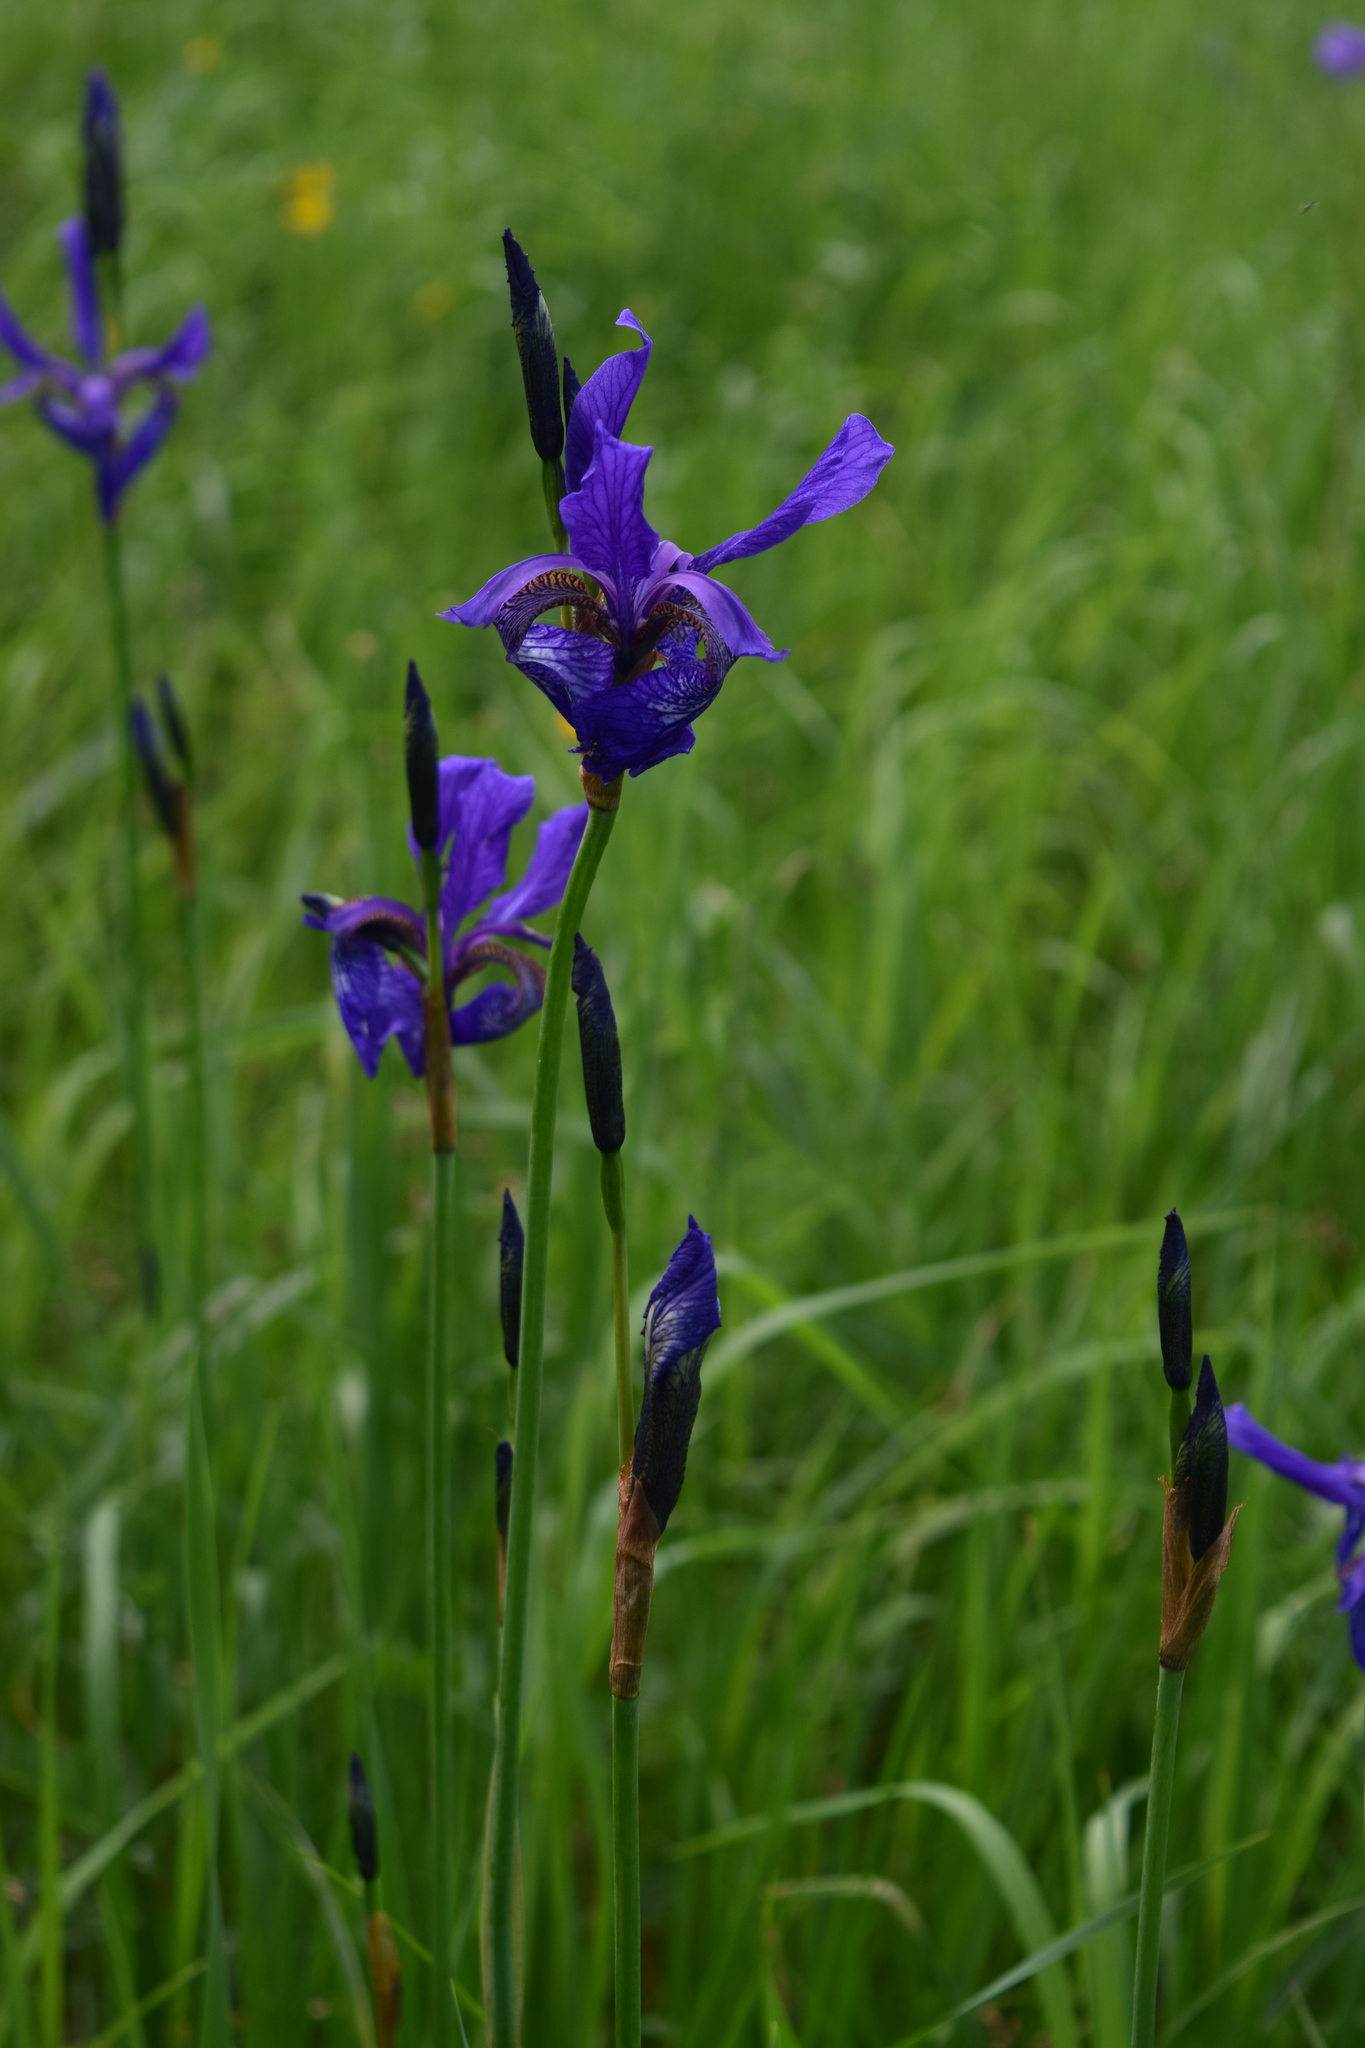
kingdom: Plantae
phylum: Tracheophyta
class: Liliopsida
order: Asparagales
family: Iridaceae
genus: Iris
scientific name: Iris sibirica
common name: Siberian iris
